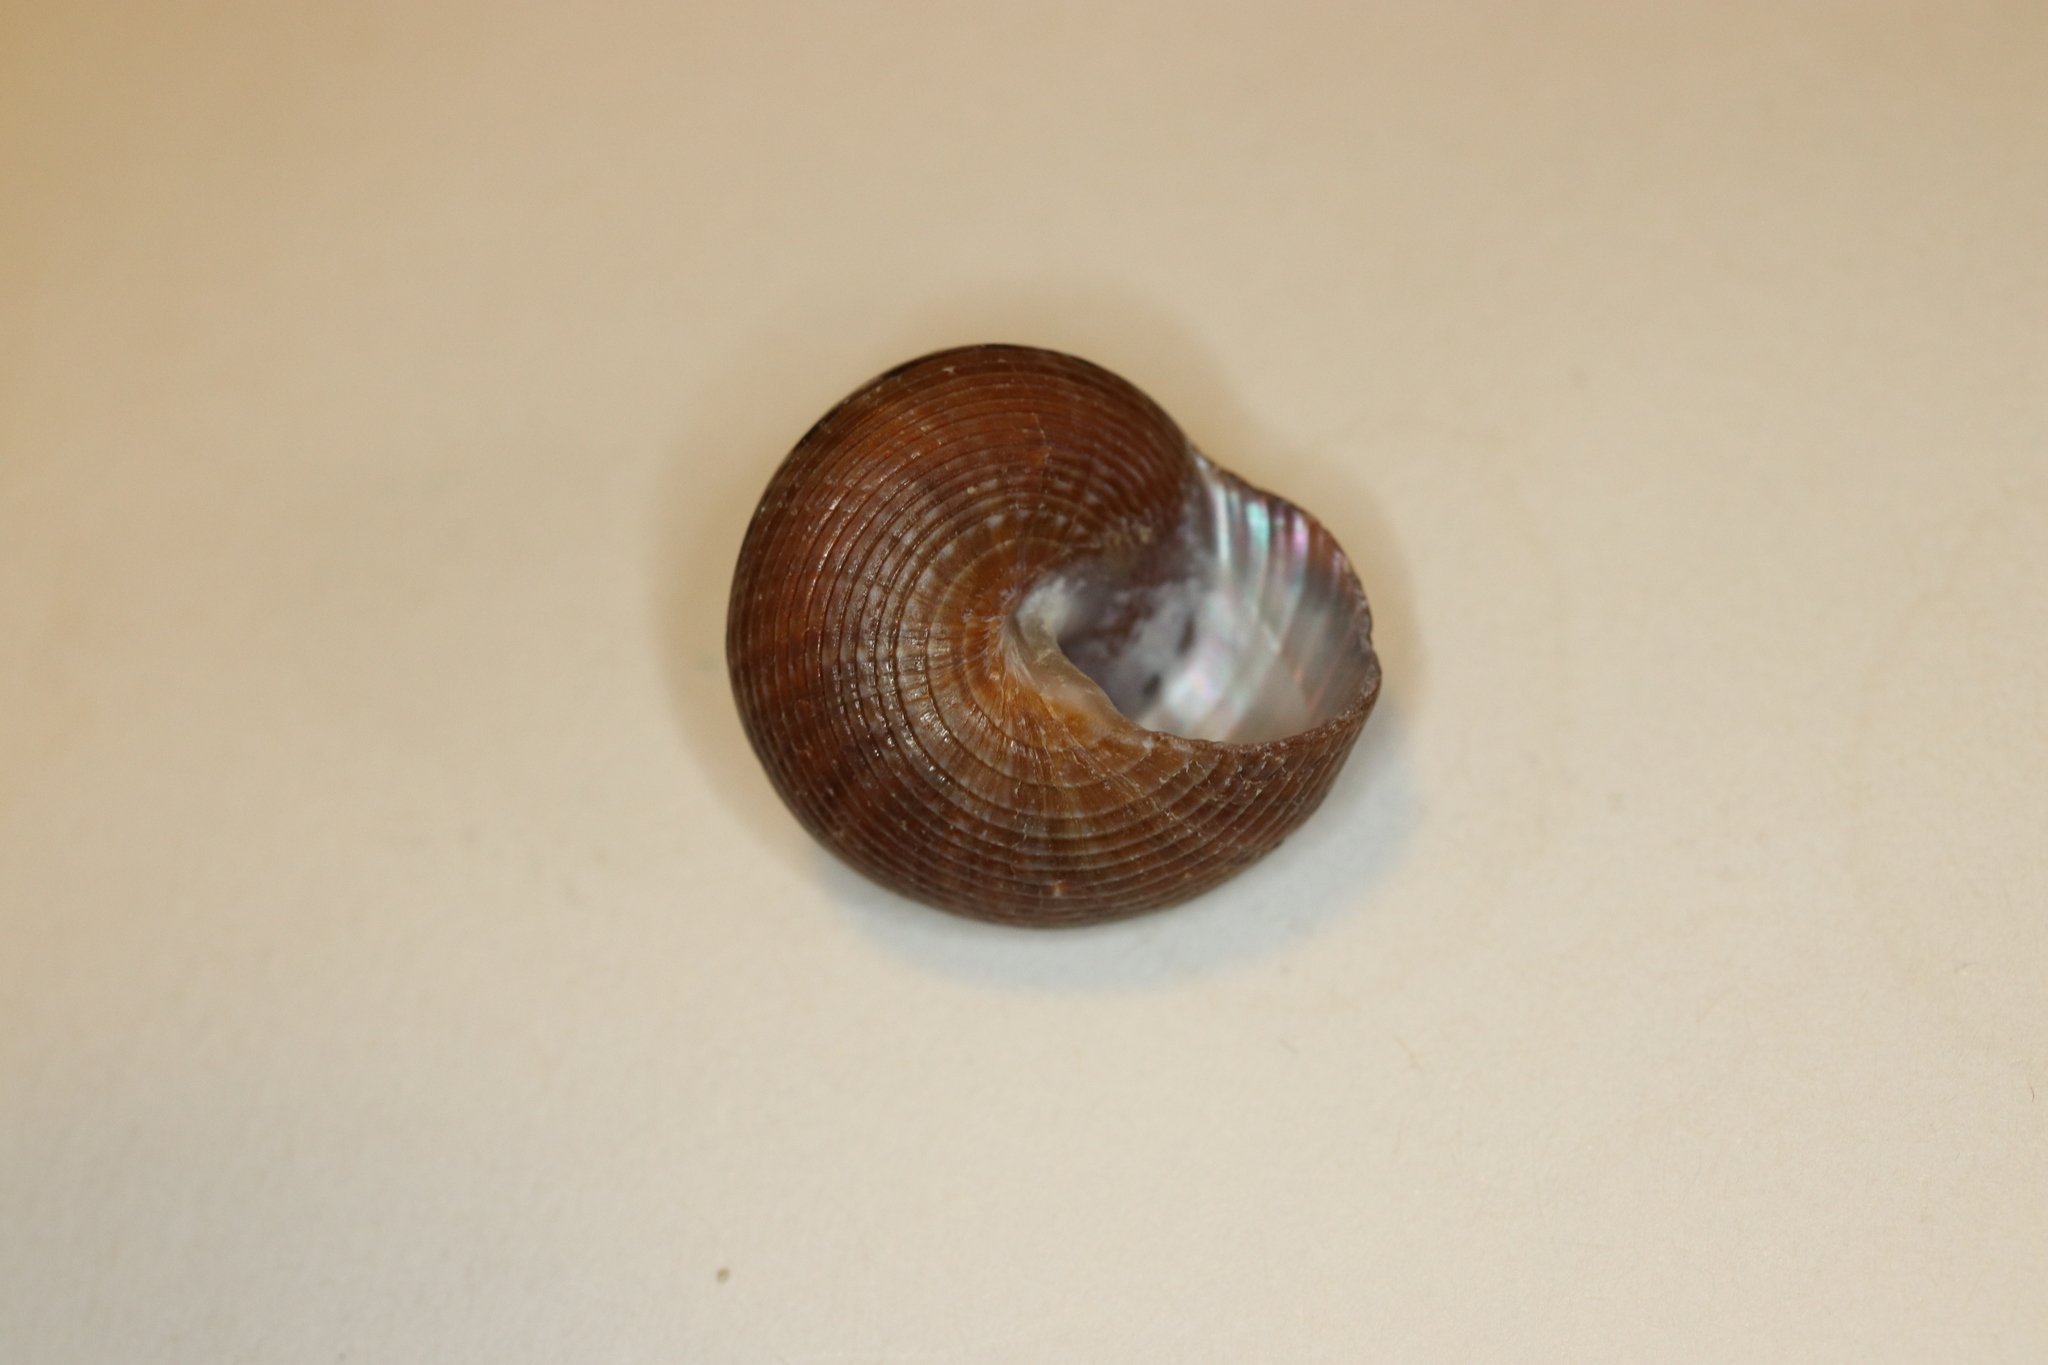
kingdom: Animalia
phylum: Mollusca
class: Gastropoda
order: Trochida
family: Calliostomatidae
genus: Tristichotrochus
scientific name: Tristichotrochus unicus
